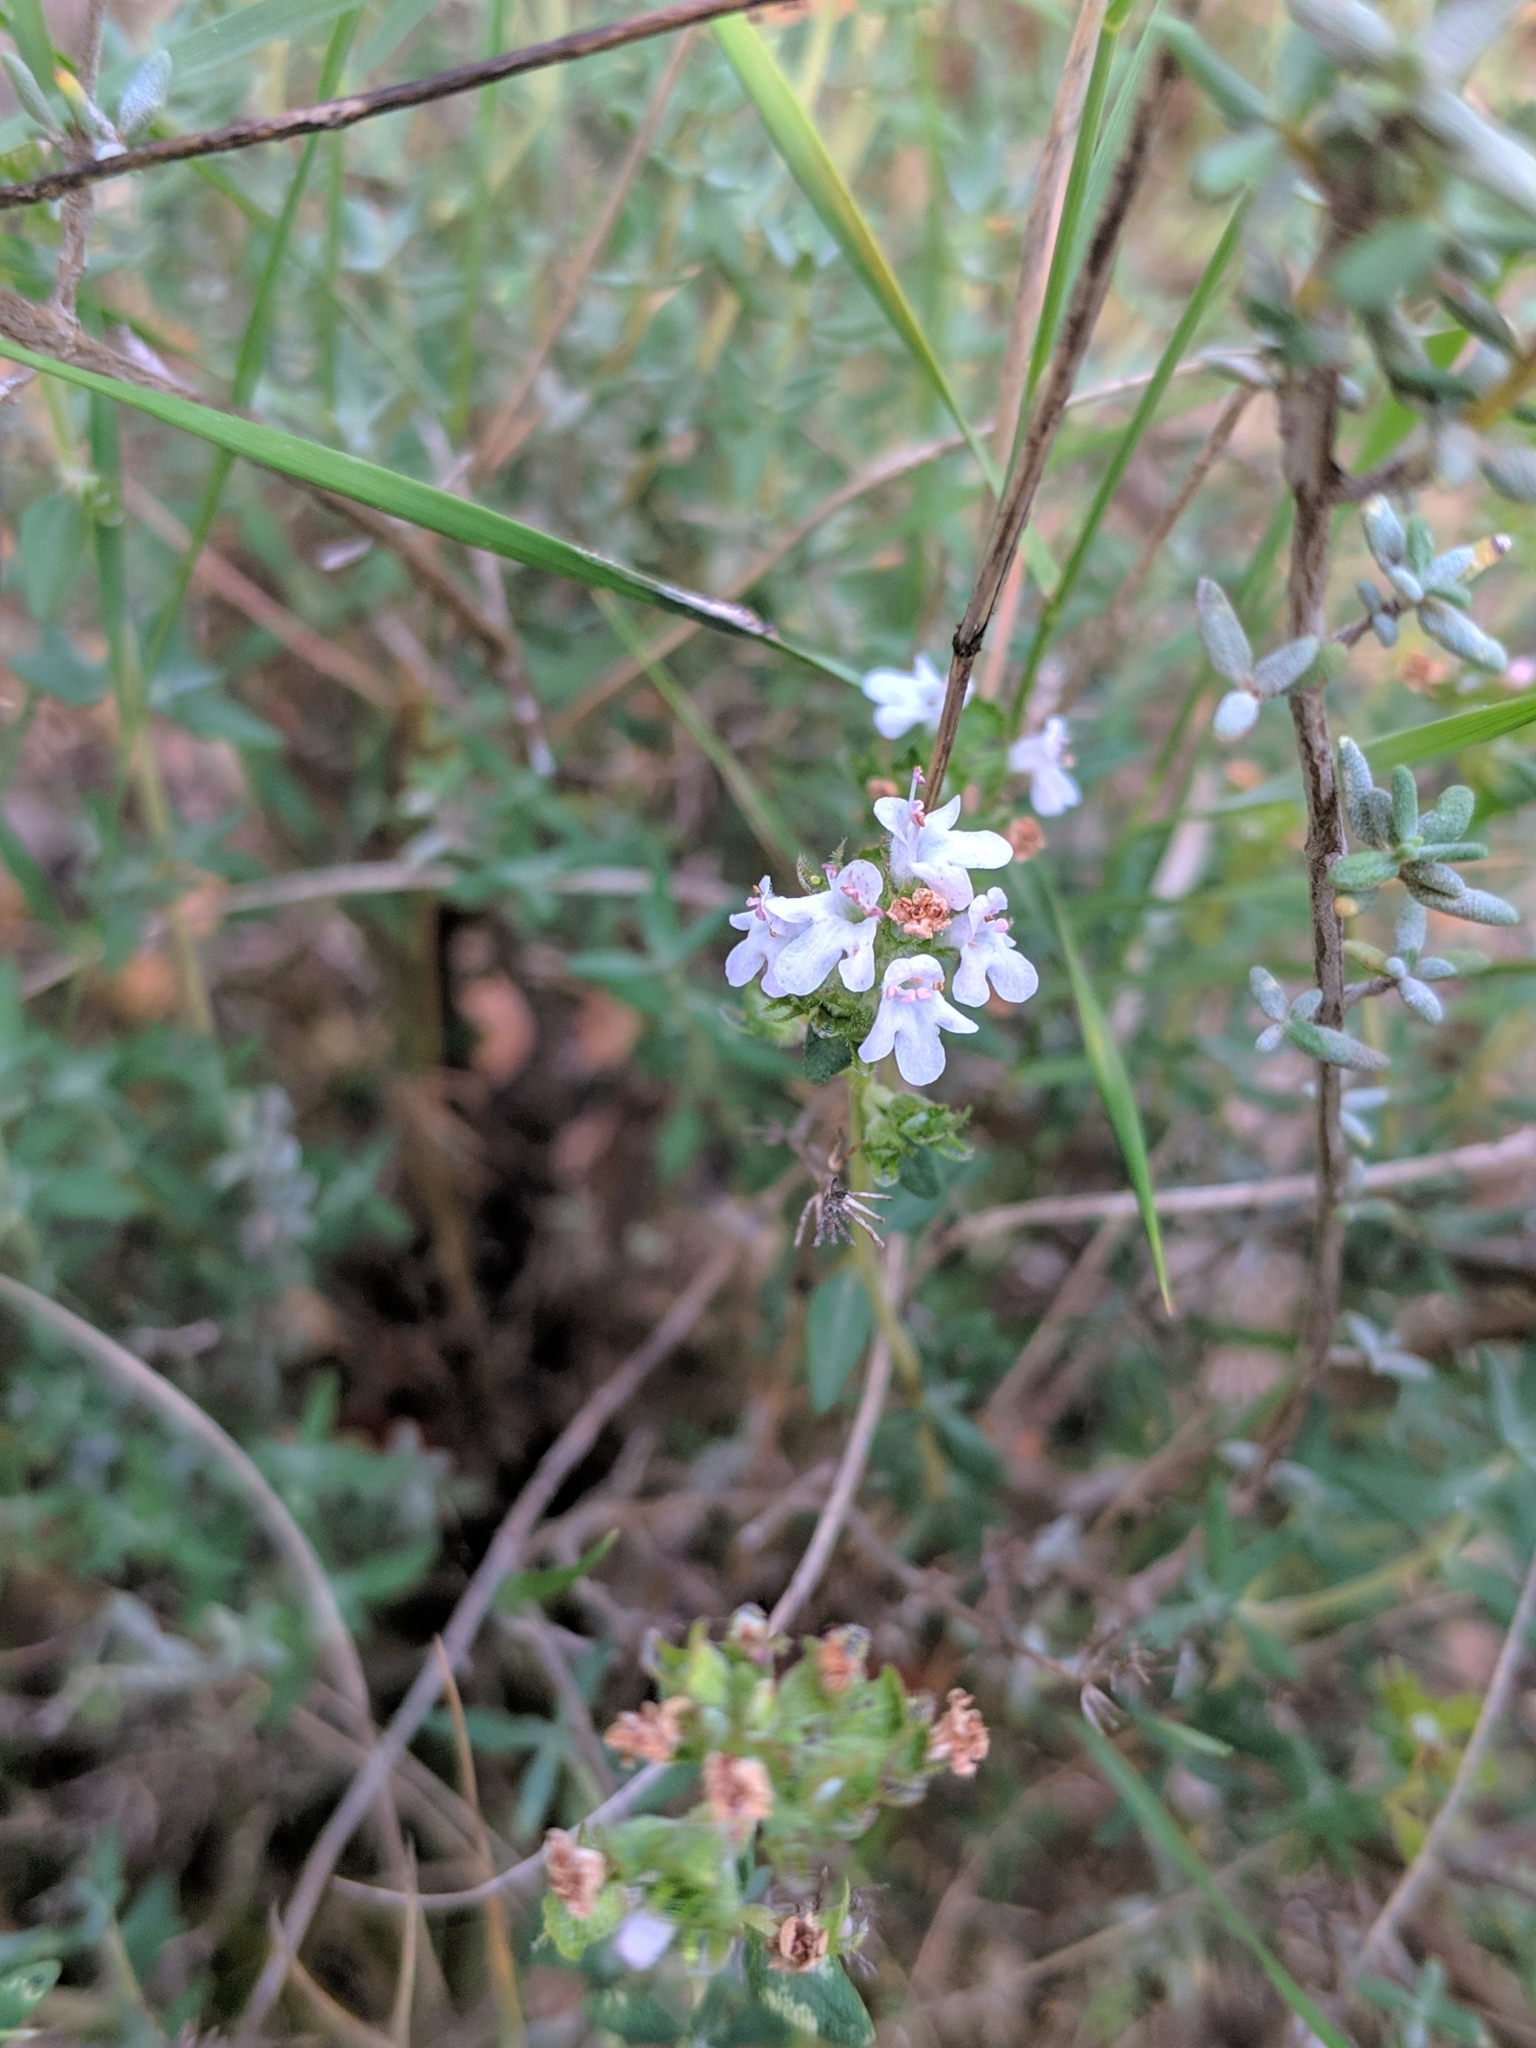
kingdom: Plantae
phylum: Tracheophyta
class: Magnoliopsida
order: Lamiales
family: Lamiaceae
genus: Thymus
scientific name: Thymus vulgaris
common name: Garden thyme
